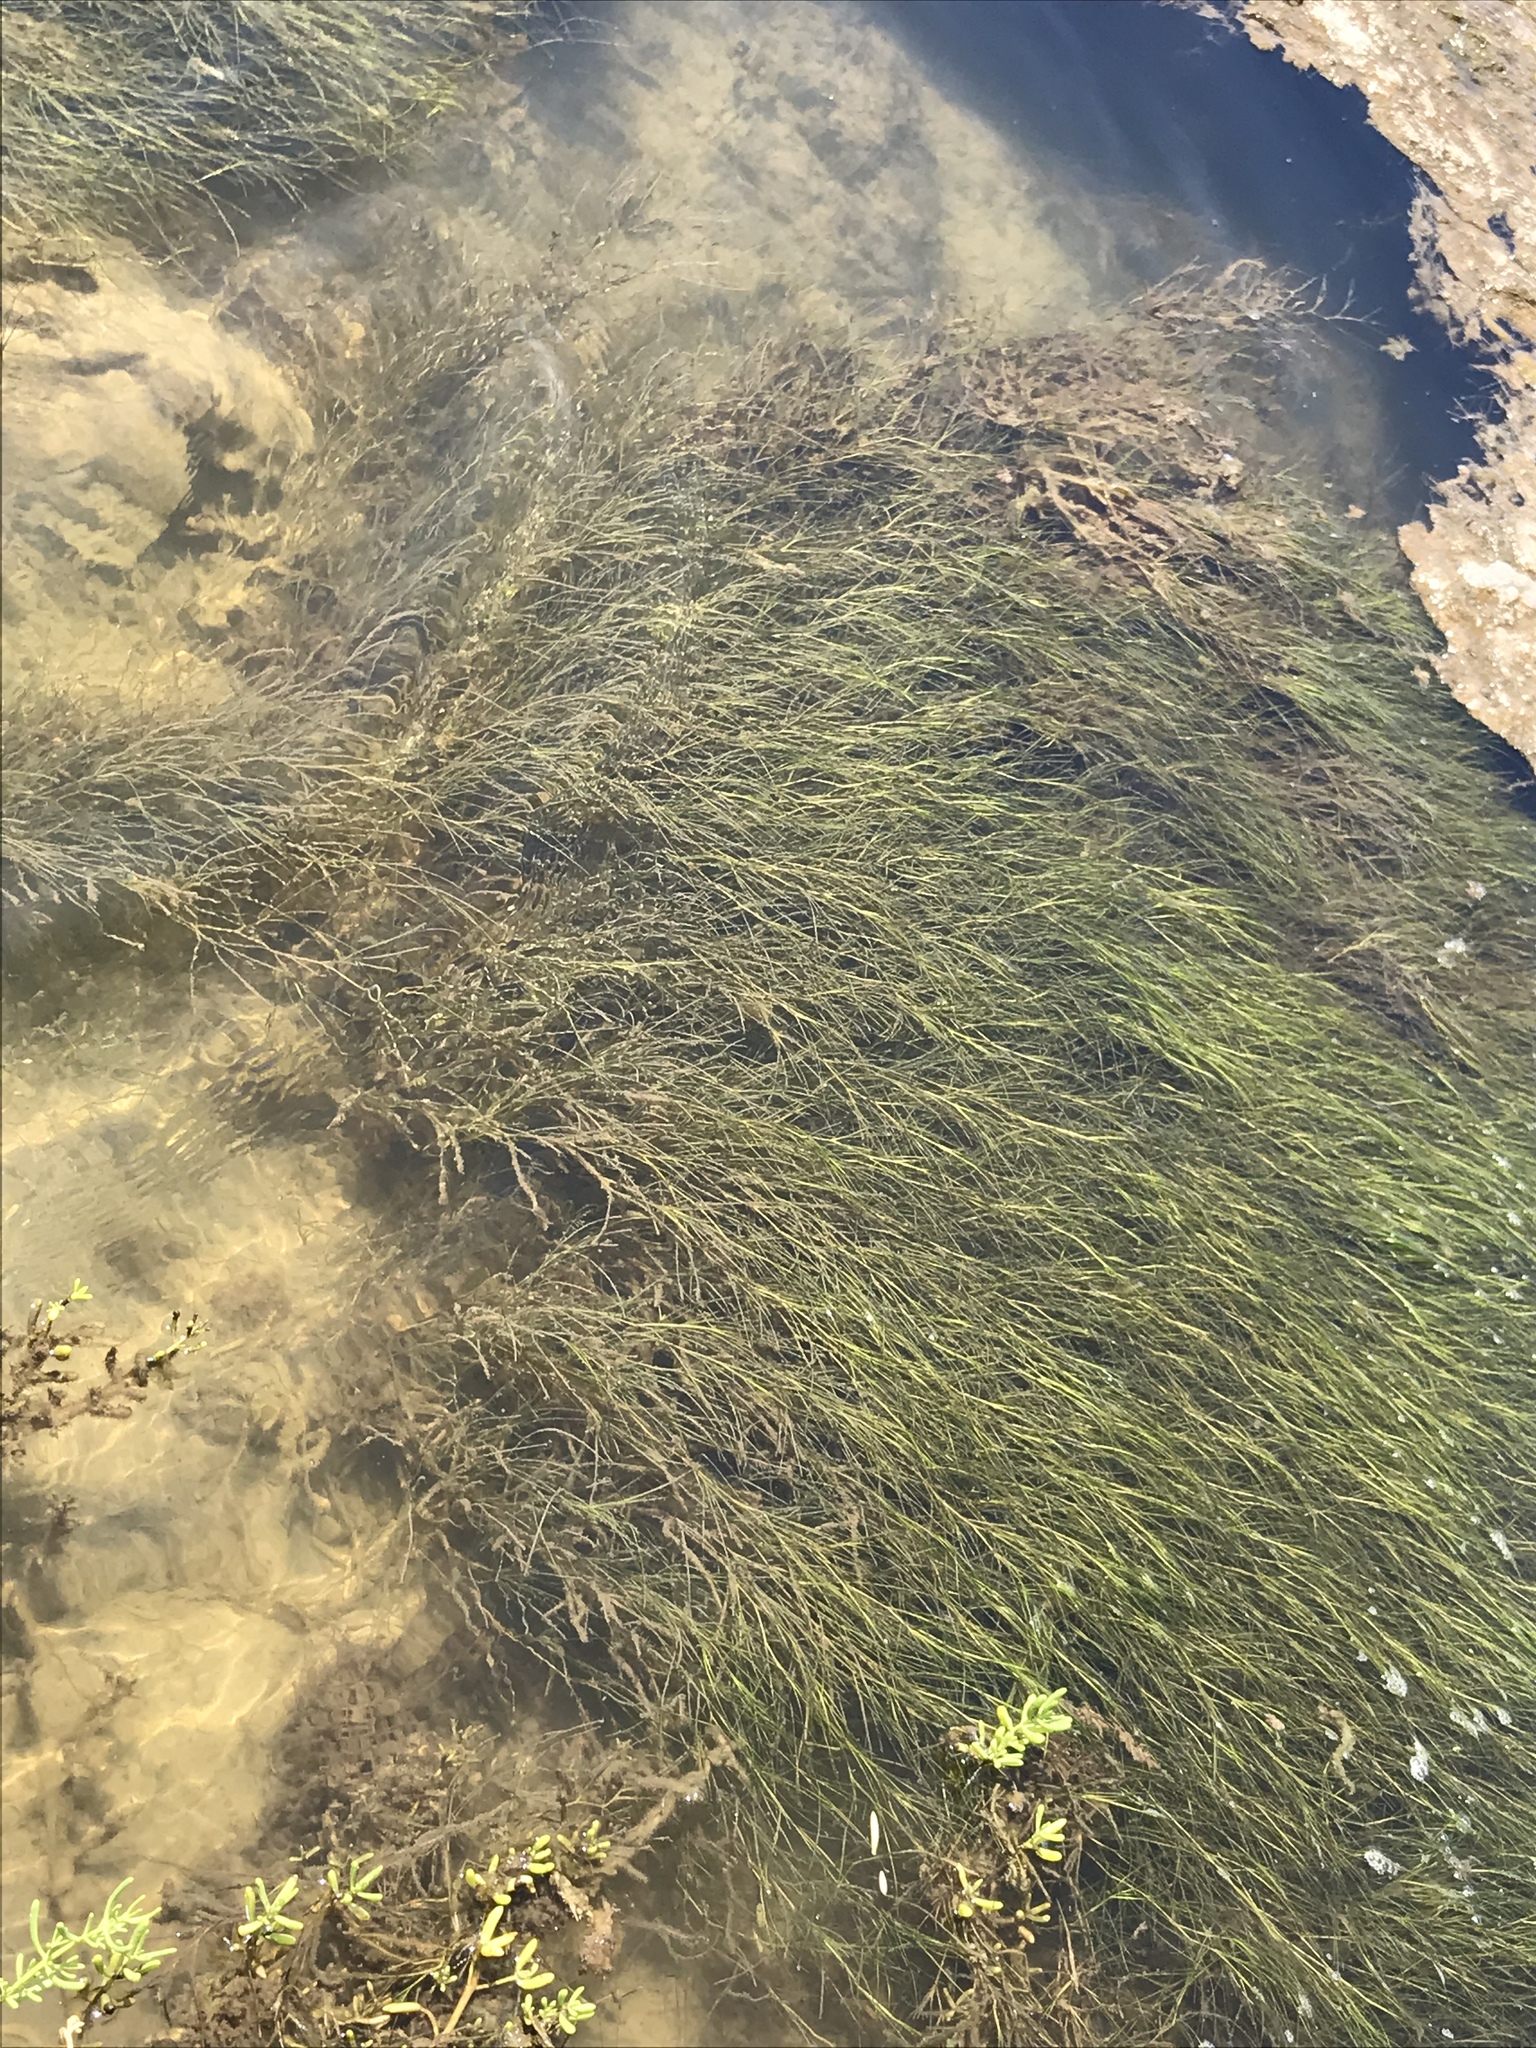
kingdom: Plantae
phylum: Tracheophyta
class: Liliopsida
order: Alismatales
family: Potamogetonaceae
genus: Stuckenia
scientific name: Stuckenia pectinata
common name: Sago pondweed
